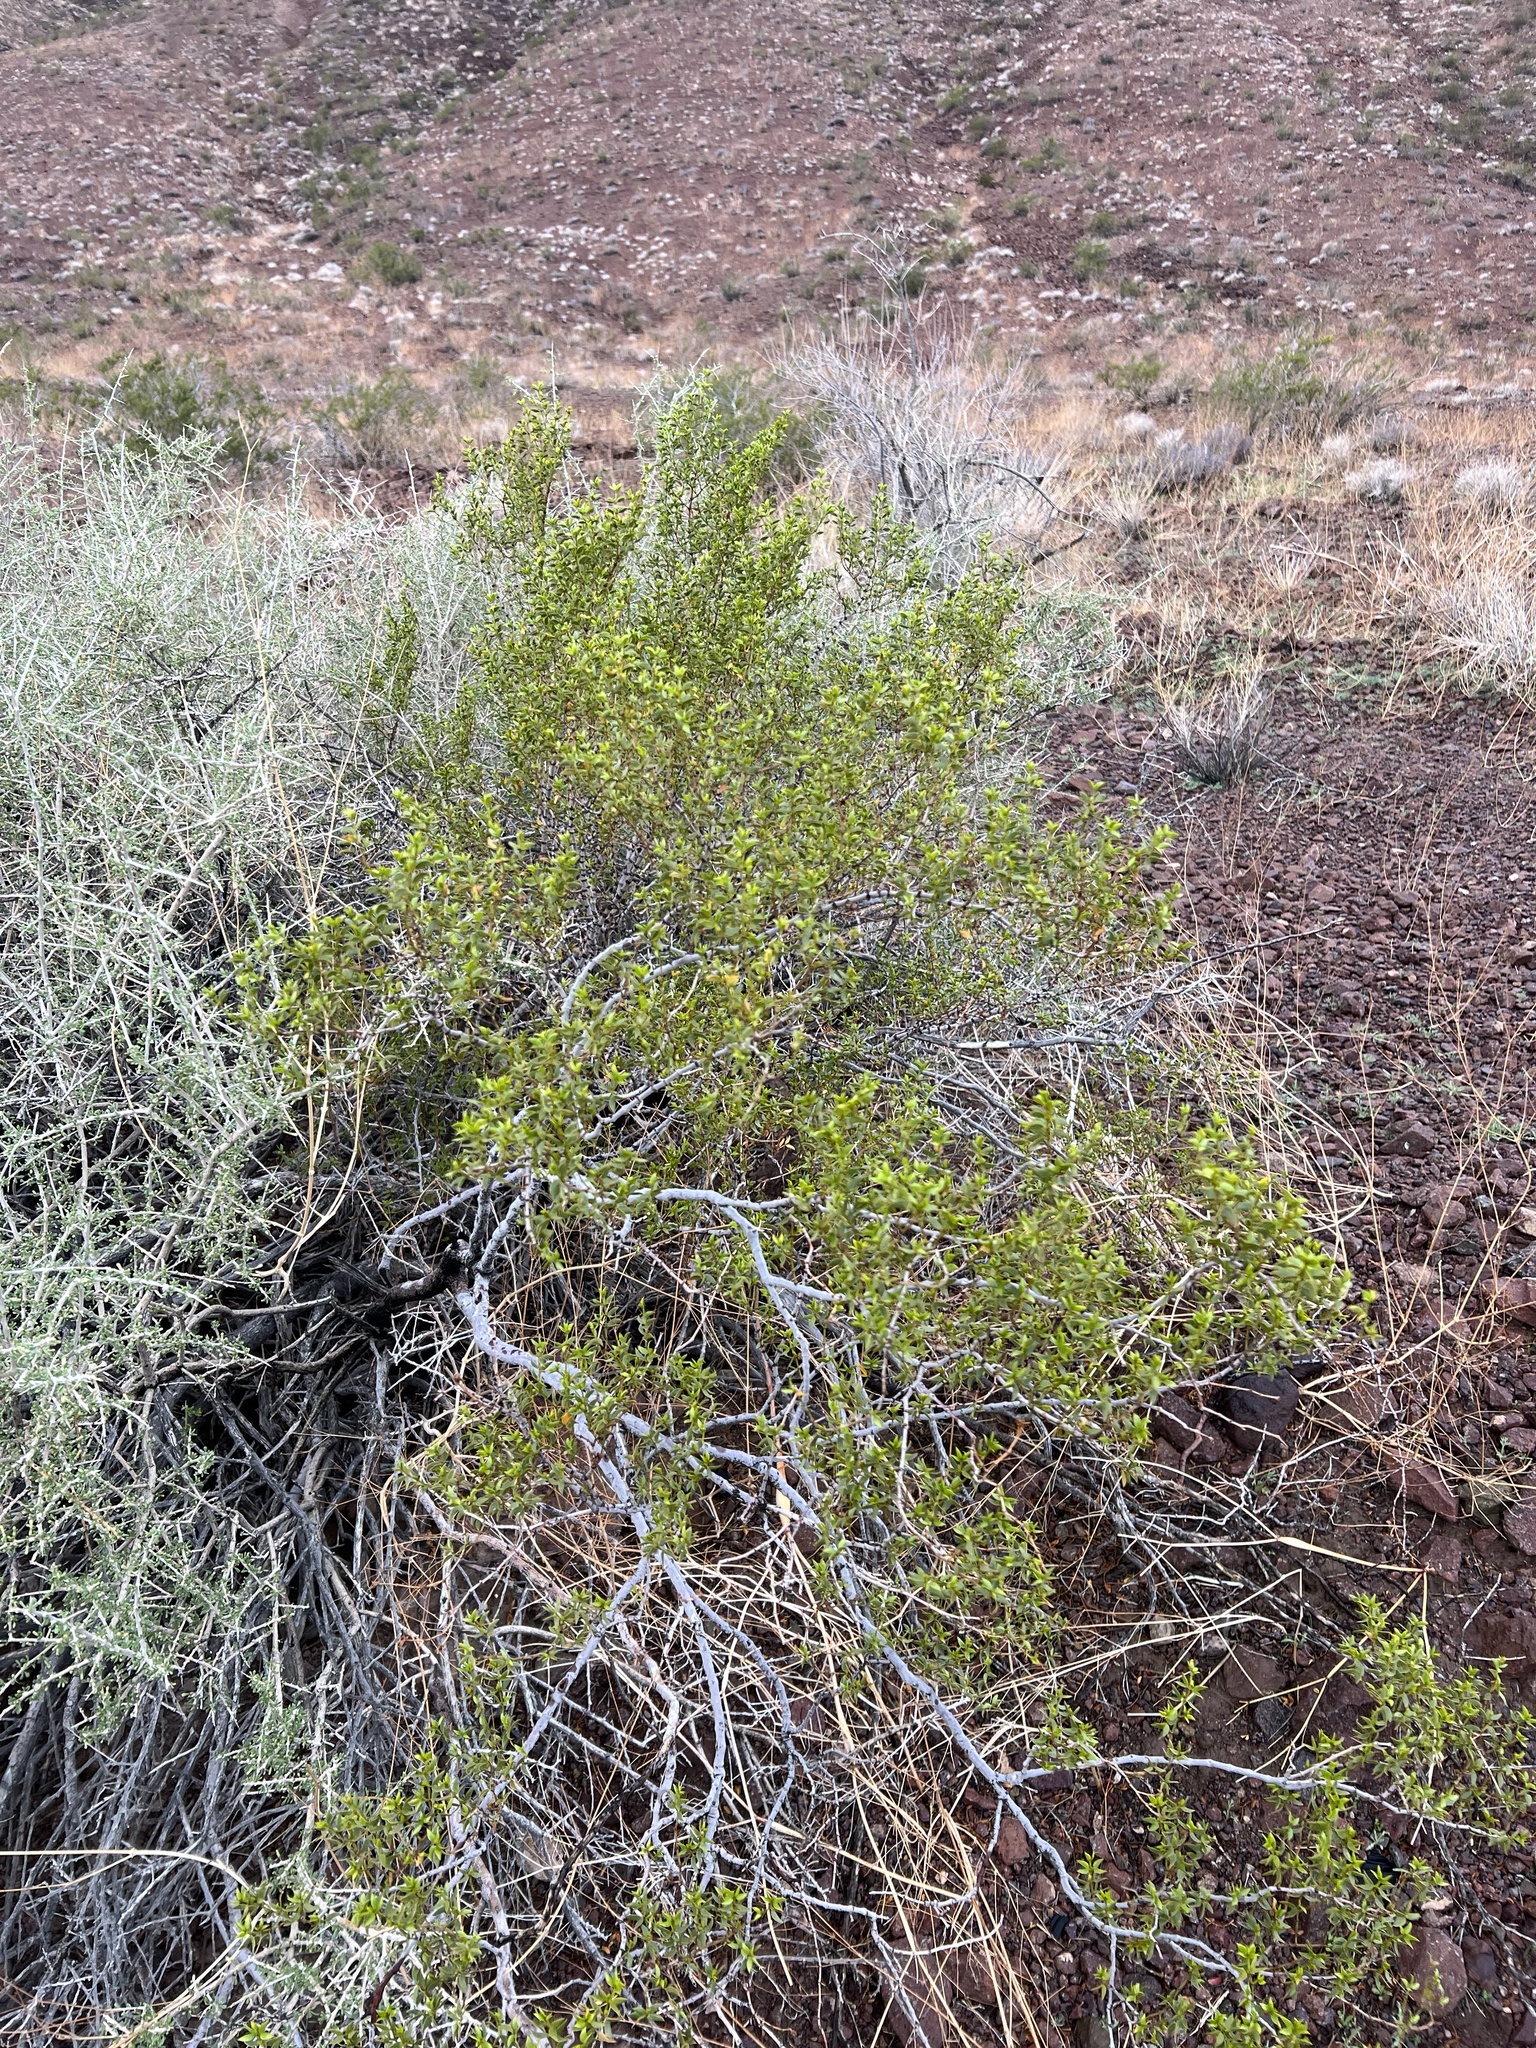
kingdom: Plantae
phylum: Tracheophyta
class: Magnoliopsida
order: Zygophyllales
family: Zygophyllaceae
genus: Larrea
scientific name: Larrea tridentata
